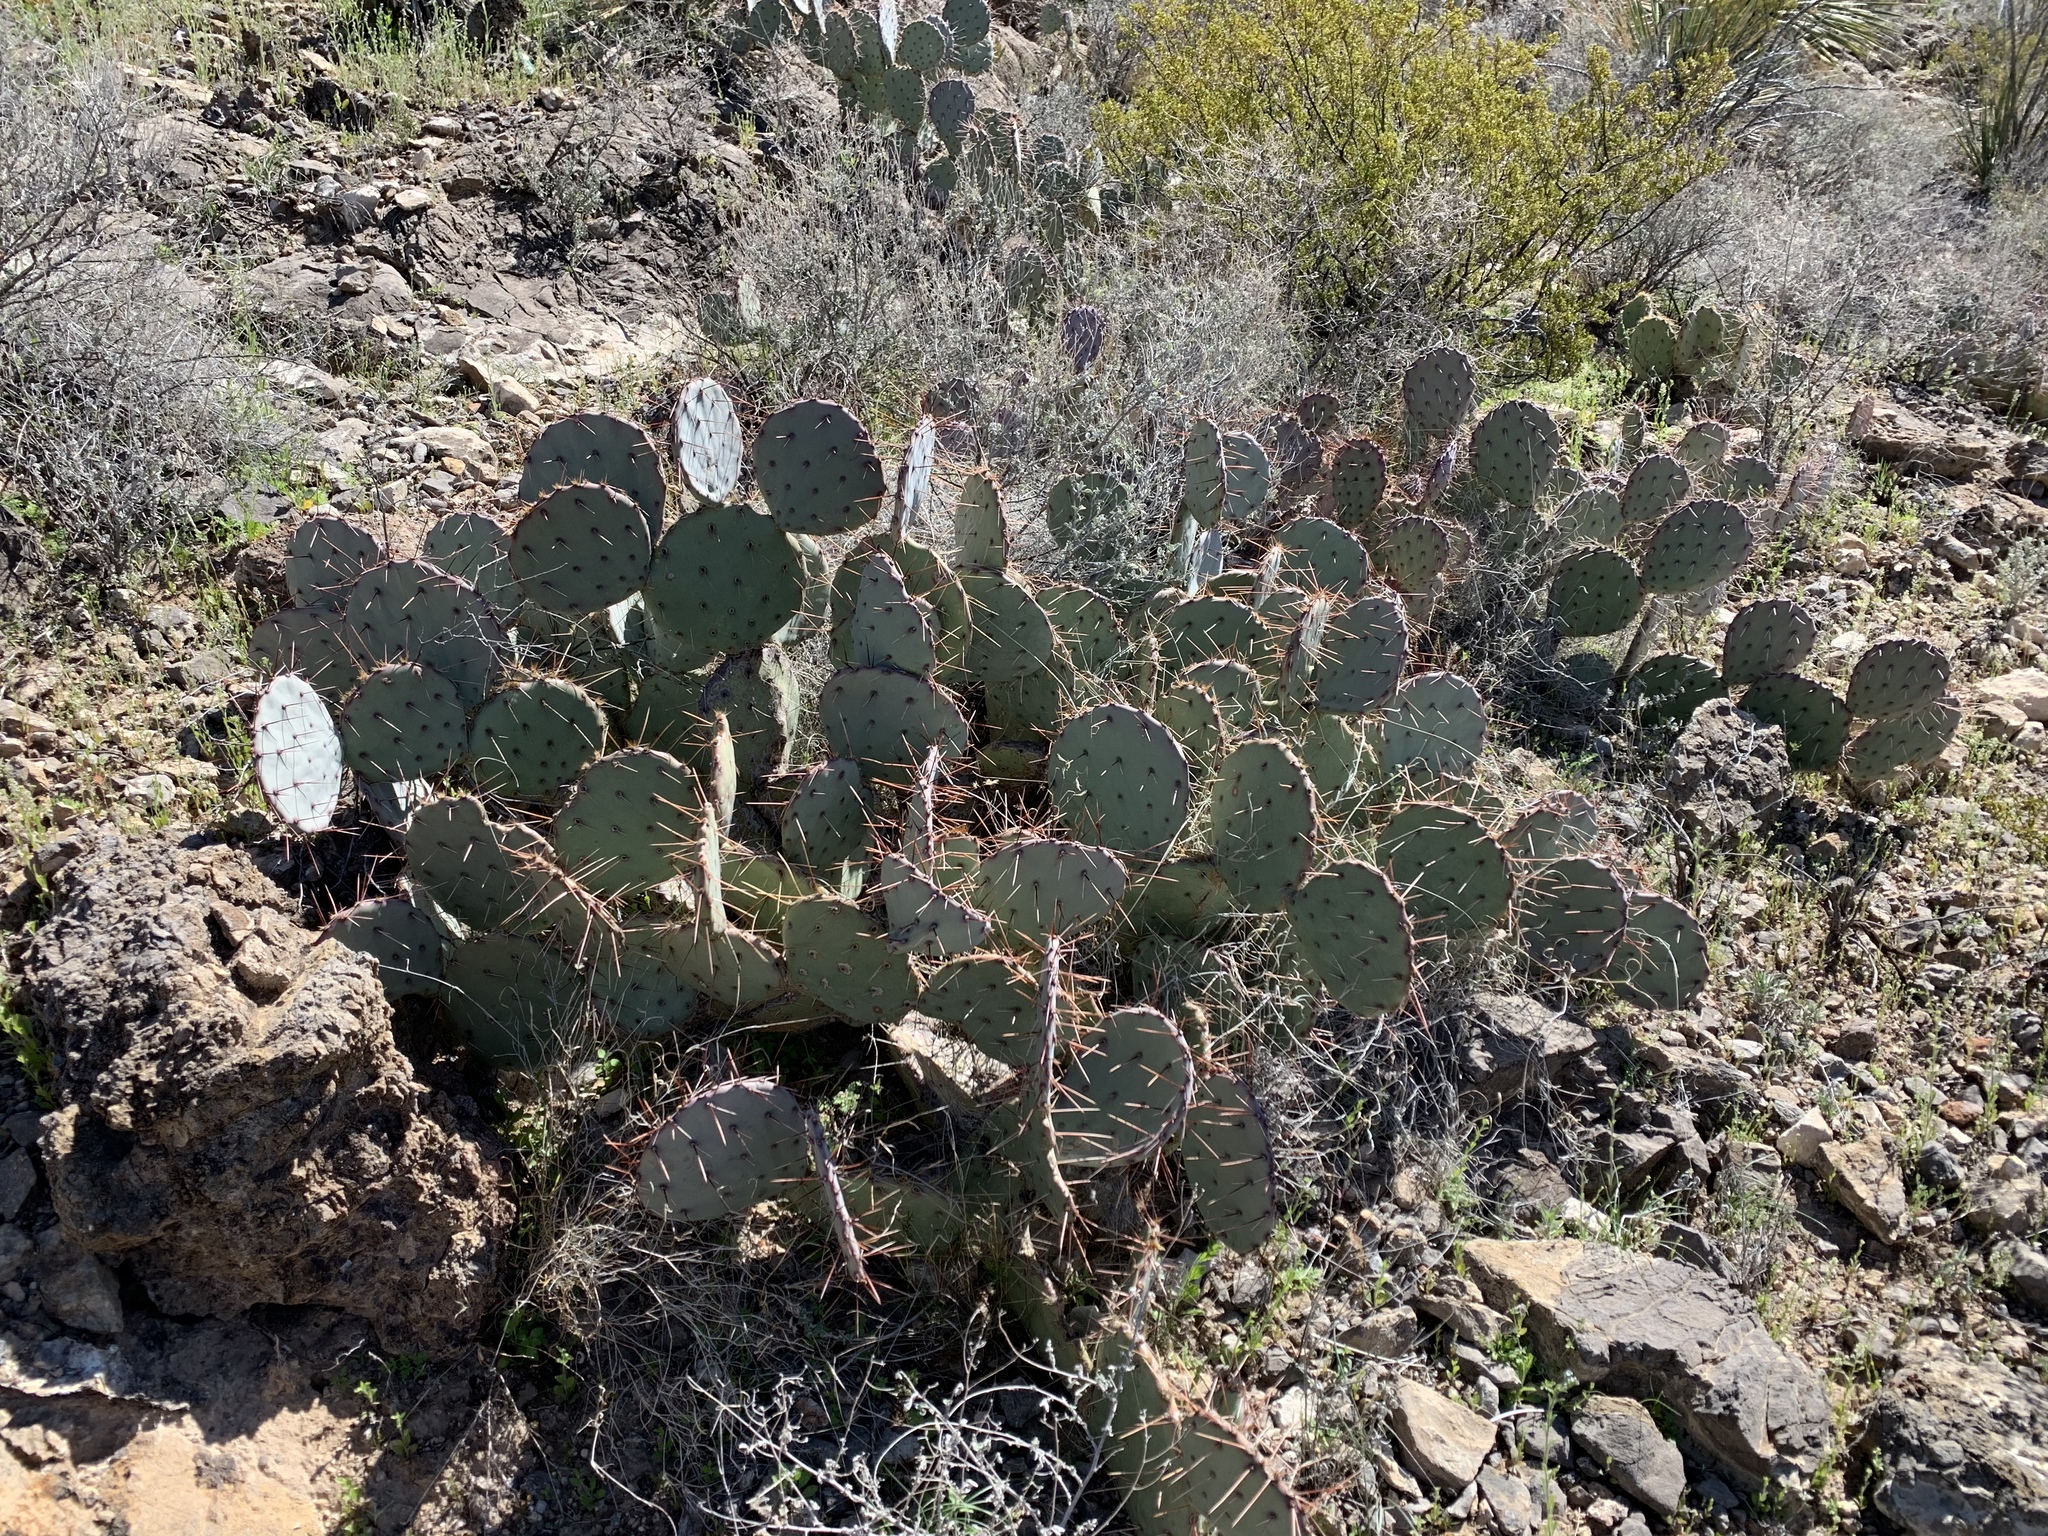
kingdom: Plantae
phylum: Tracheophyta
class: Magnoliopsida
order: Caryophyllales
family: Cactaceae
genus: Opuntia
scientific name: Opuntia engelmannii
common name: Cactus-apple
